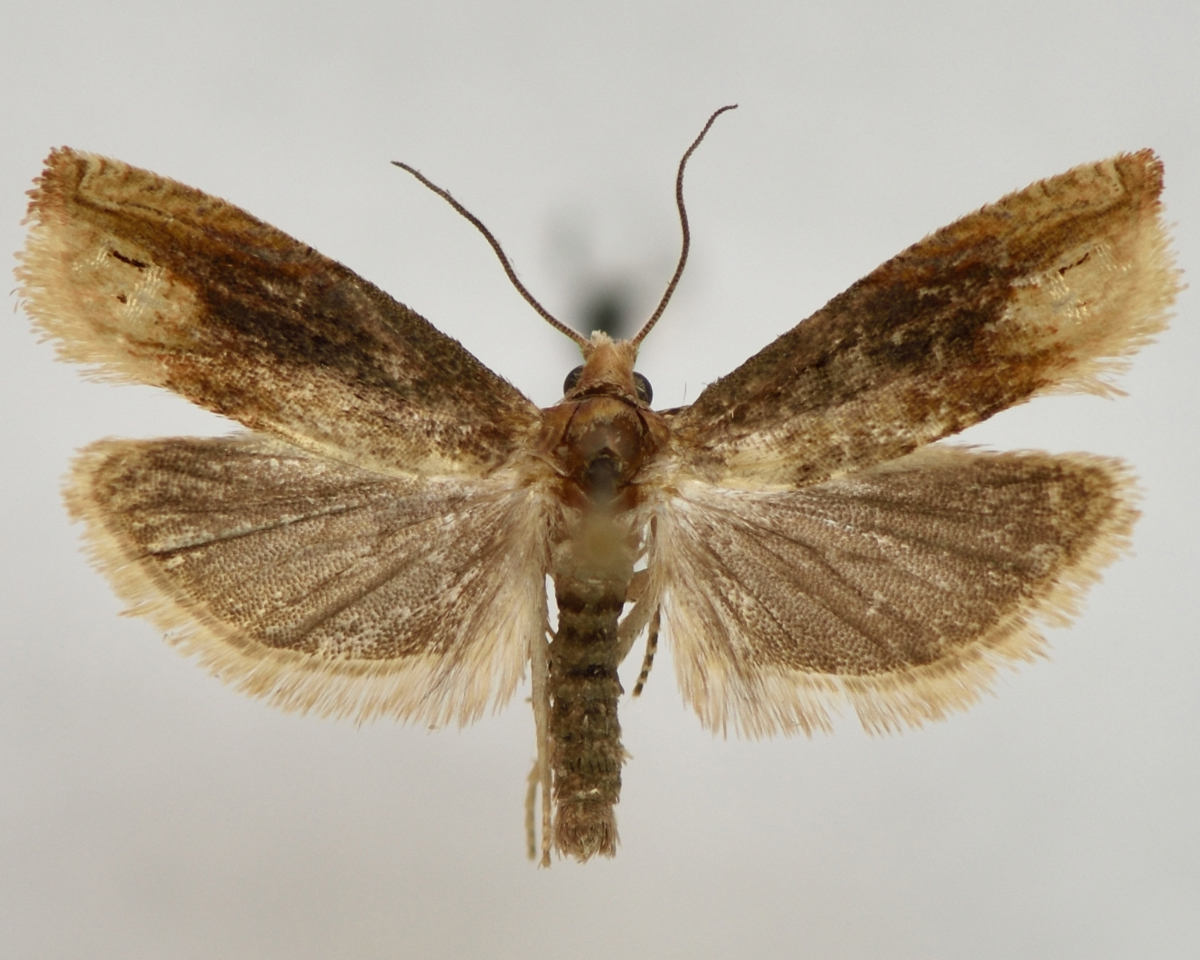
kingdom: Animalia
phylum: Arthropoda
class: Insecta
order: Lepidoptera
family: Tortricidae
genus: Eucosma
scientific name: Eucosma flavispecula
